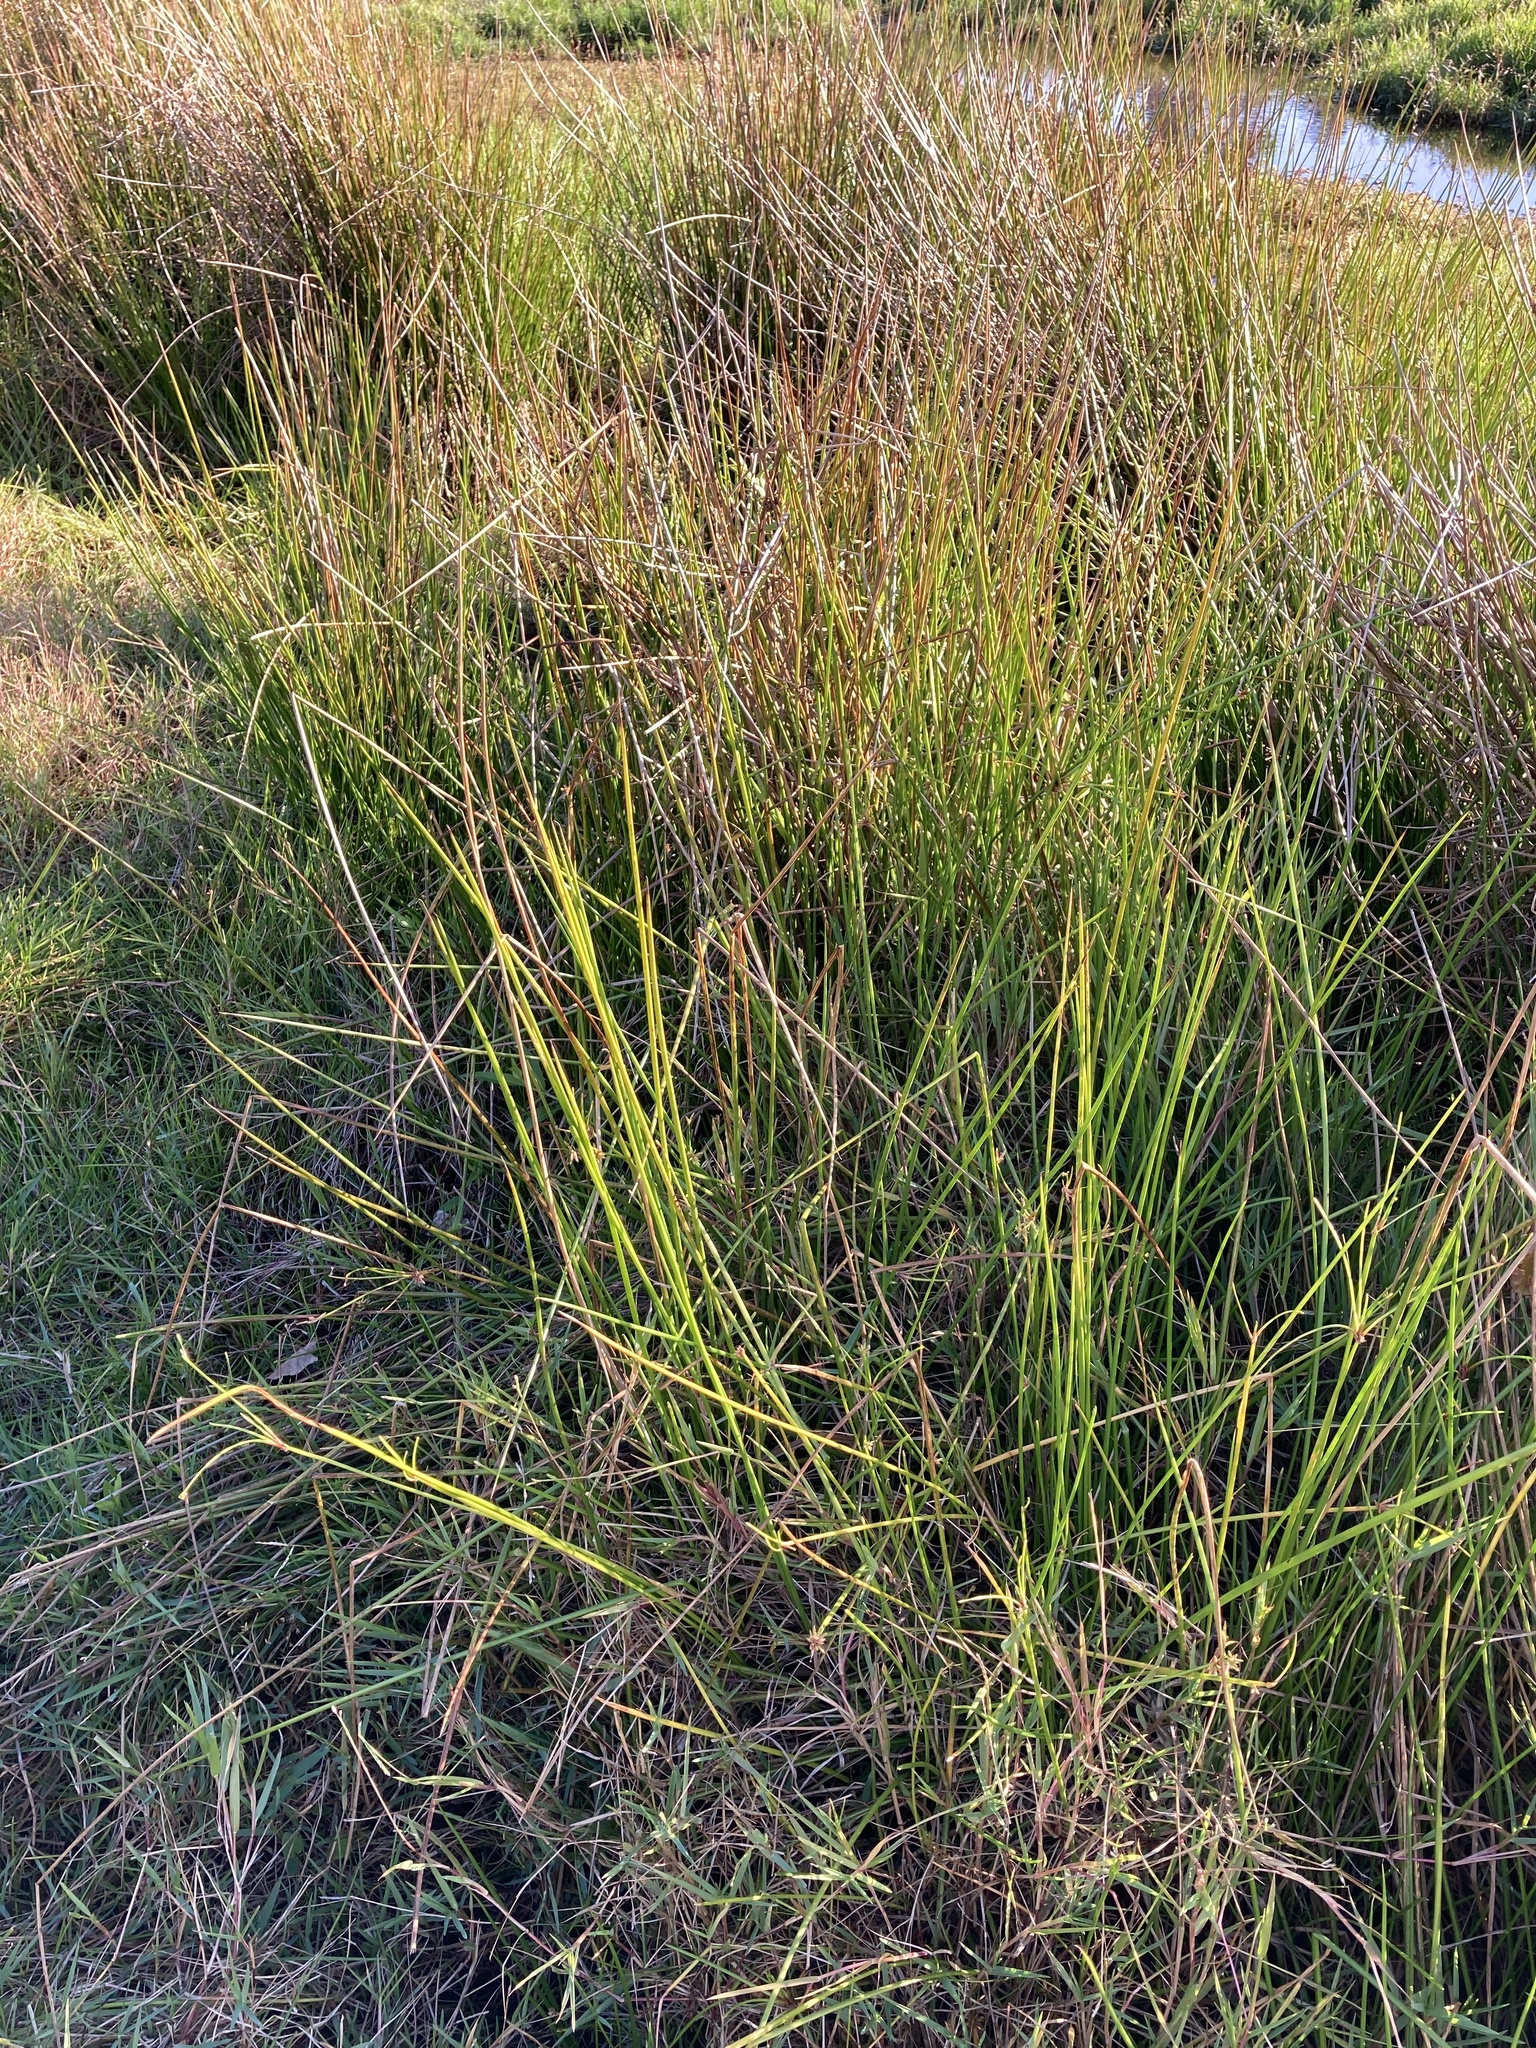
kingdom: Plantae
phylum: Tracheophyta
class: Liliopsida
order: Poales
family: Cyperaceae
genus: Isolepis
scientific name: Isolepis prolifera
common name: Proliferating bulrush
